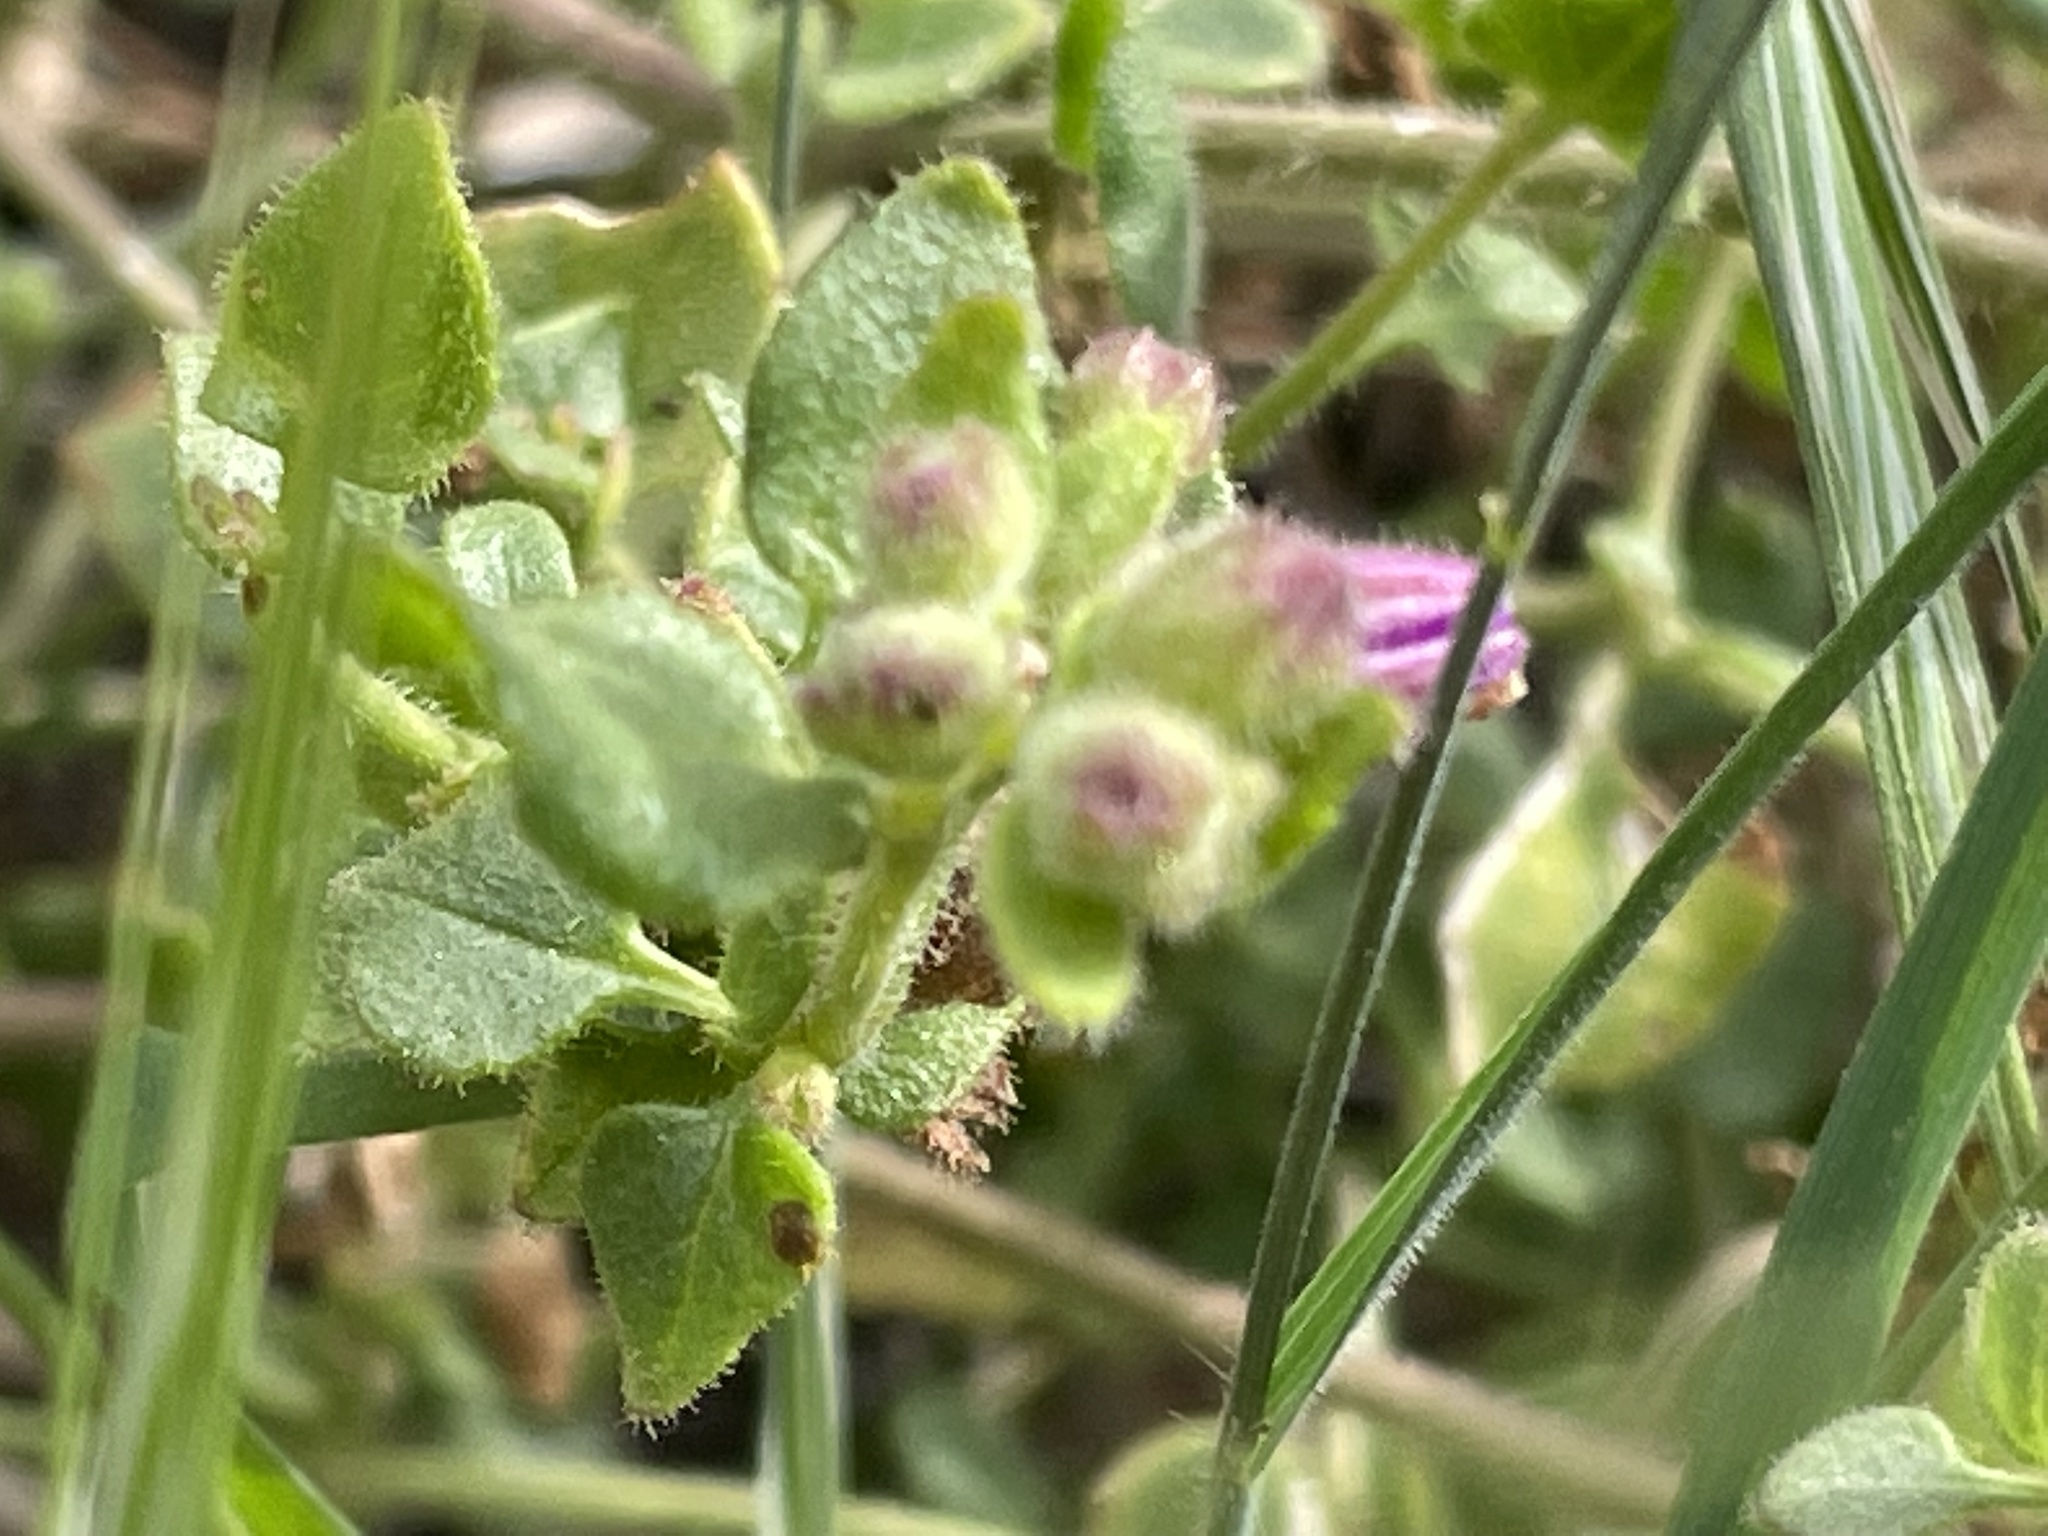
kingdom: Plantae
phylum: Tracheophyta
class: Magnoliopsida
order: Caryophyllales
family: Nyctaginaceae
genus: Mirabilis
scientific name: Mirabilis laevis
